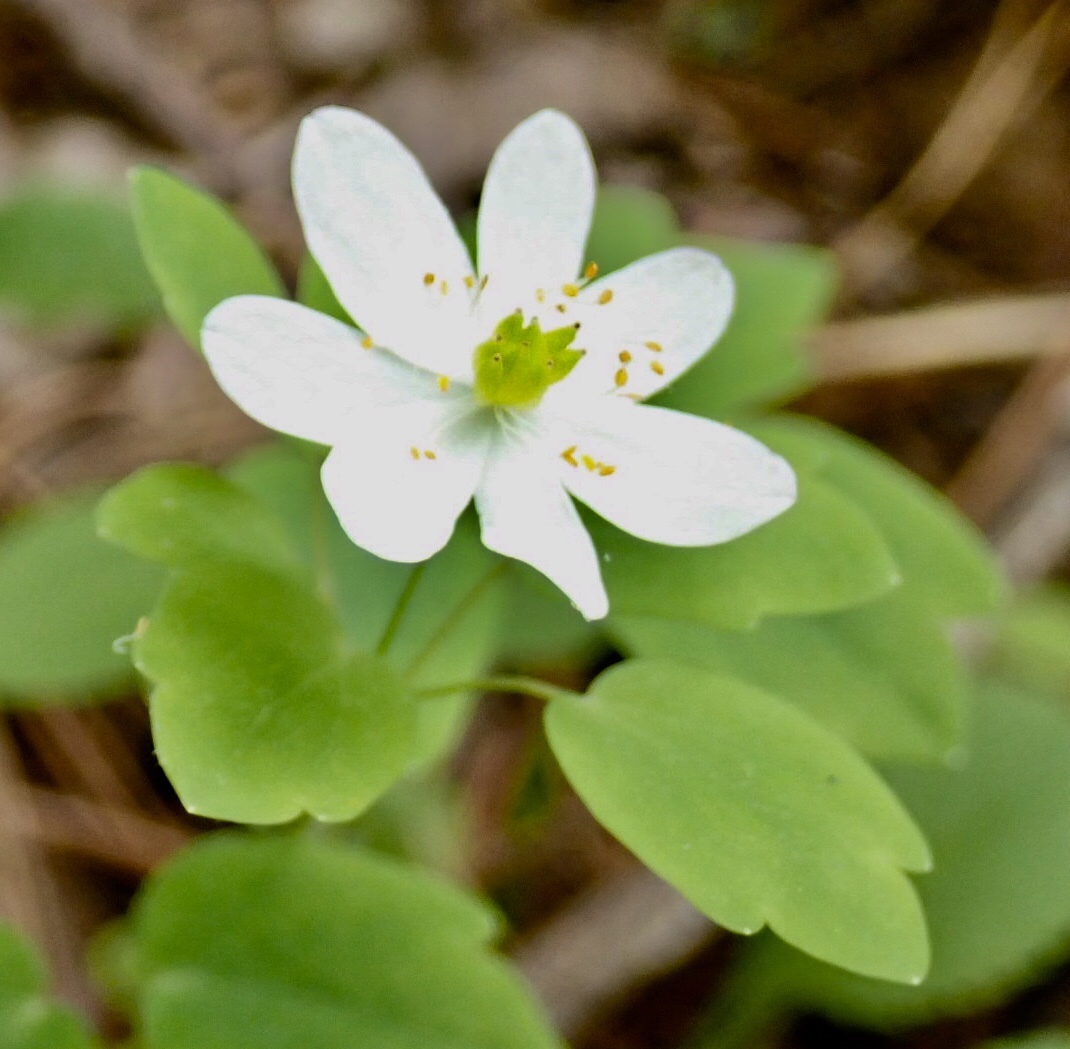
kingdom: Plantae
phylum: Tracheophyta
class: Magnoliopsida
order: Ranunculales
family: Ranunculaceae
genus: Thalictrum
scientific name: Thalictrum thalictroides
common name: Rue-anemone
